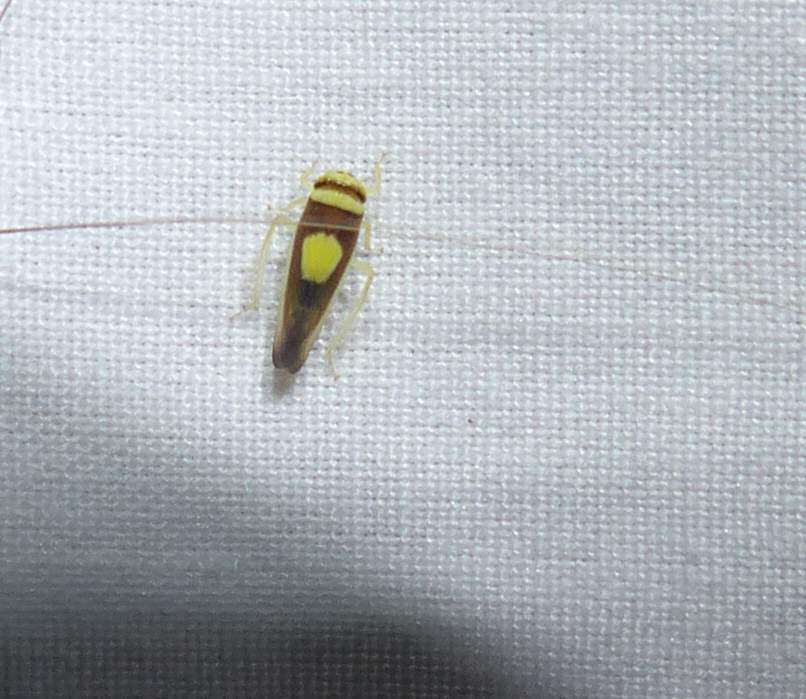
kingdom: Animalia
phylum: Arthropoda
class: Insecta
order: Hemiptera
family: Cicadellidae
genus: Colladonus
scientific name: Colladonus clitellarius
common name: The saddleback leafhopper
